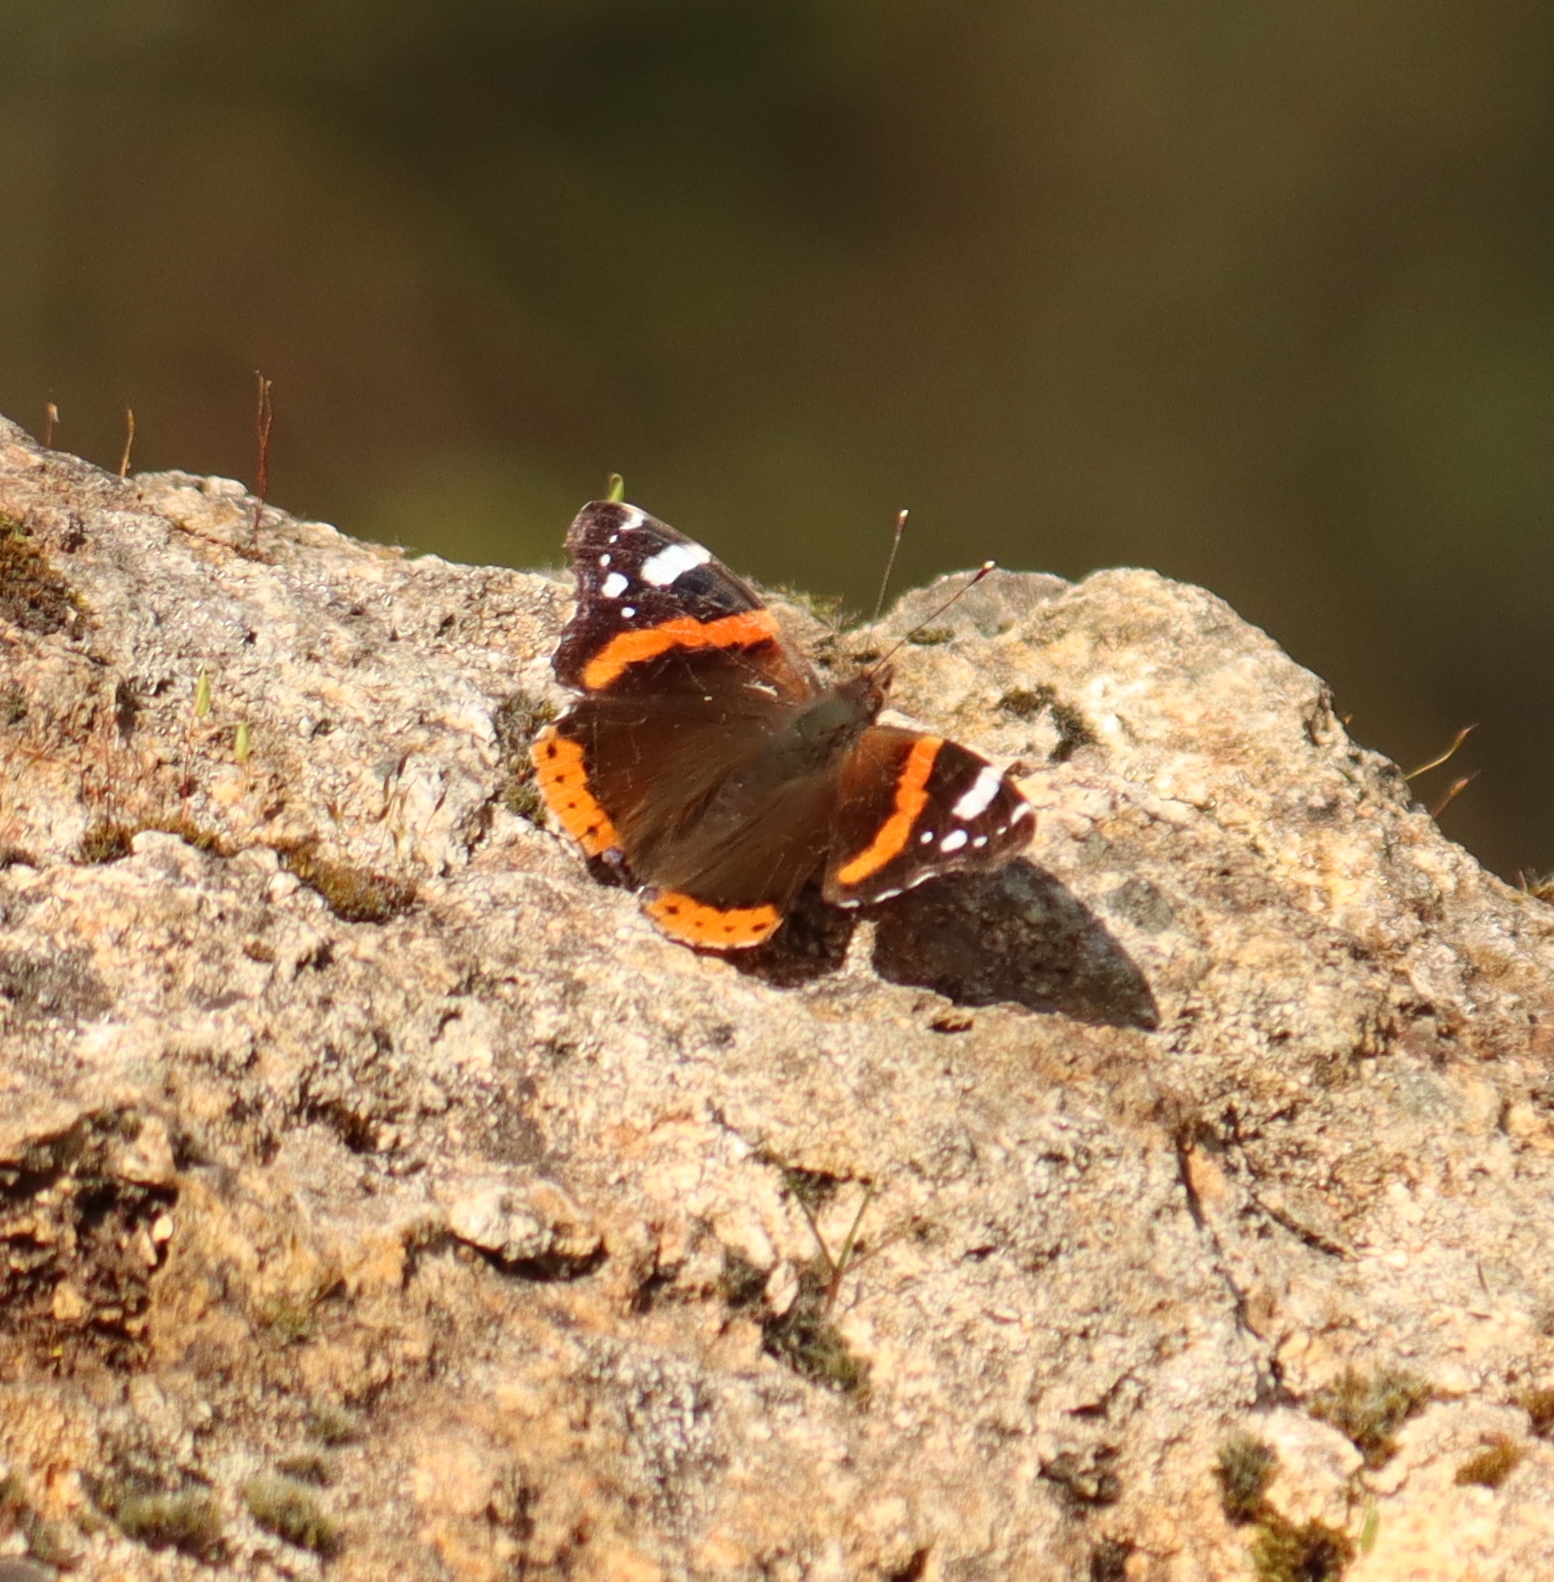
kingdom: Animalia
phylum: Arthropoda
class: Insecta
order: Lepidoptera
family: Nymphalidae
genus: Vanessa
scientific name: Vanessa atalanta
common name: Red admiral
